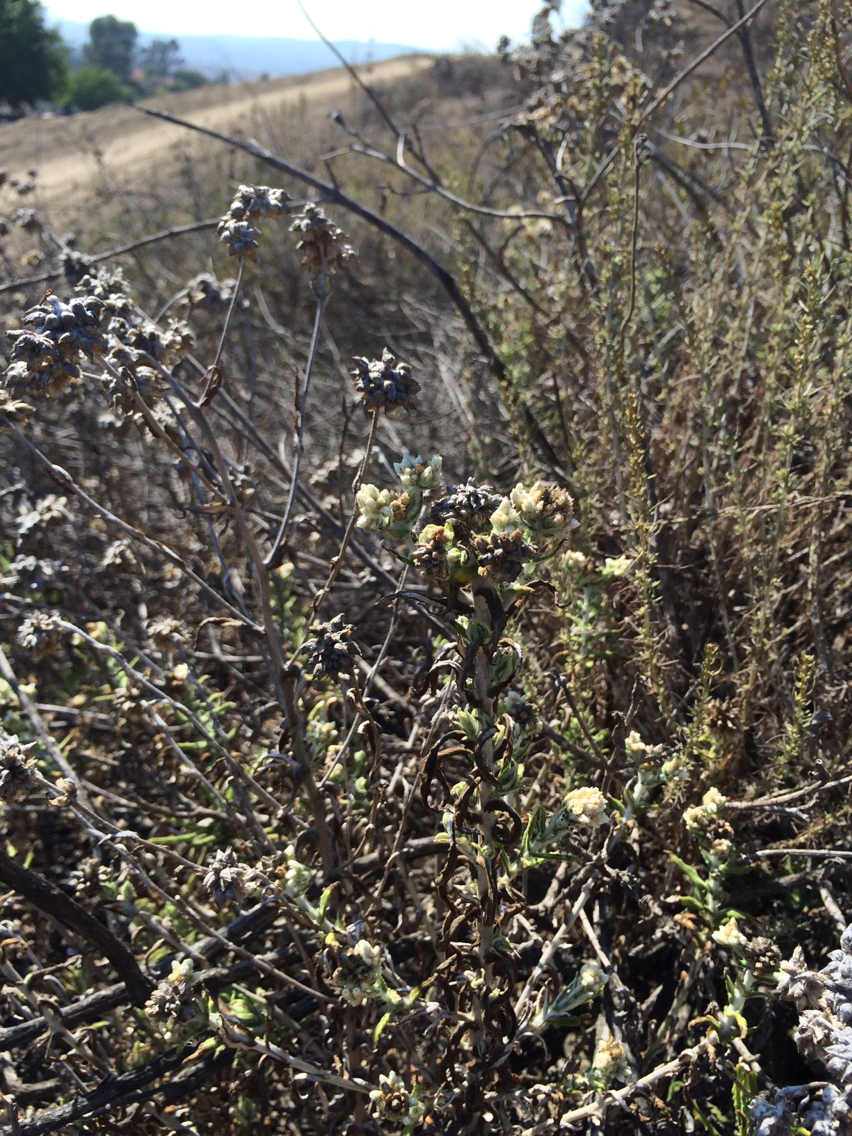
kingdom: Plantae
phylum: Tracheophyta
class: Magnoliopsida
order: Asterales
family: Asteraceae
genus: Pseudognaphalium
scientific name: Pseudognaphalium biolettii
